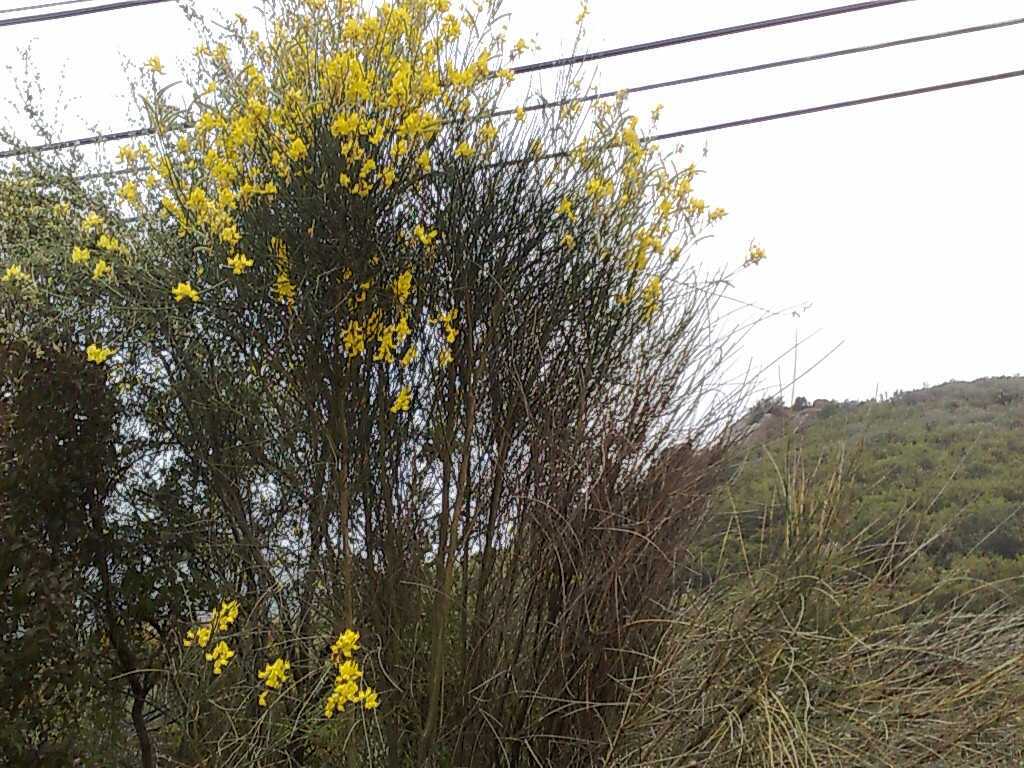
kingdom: Plantae
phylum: Tracheophyta
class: Magnoliopsida
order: Fabales
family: Fabaceae
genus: Spartium
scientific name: Spartium junceum
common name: Spanish broom
